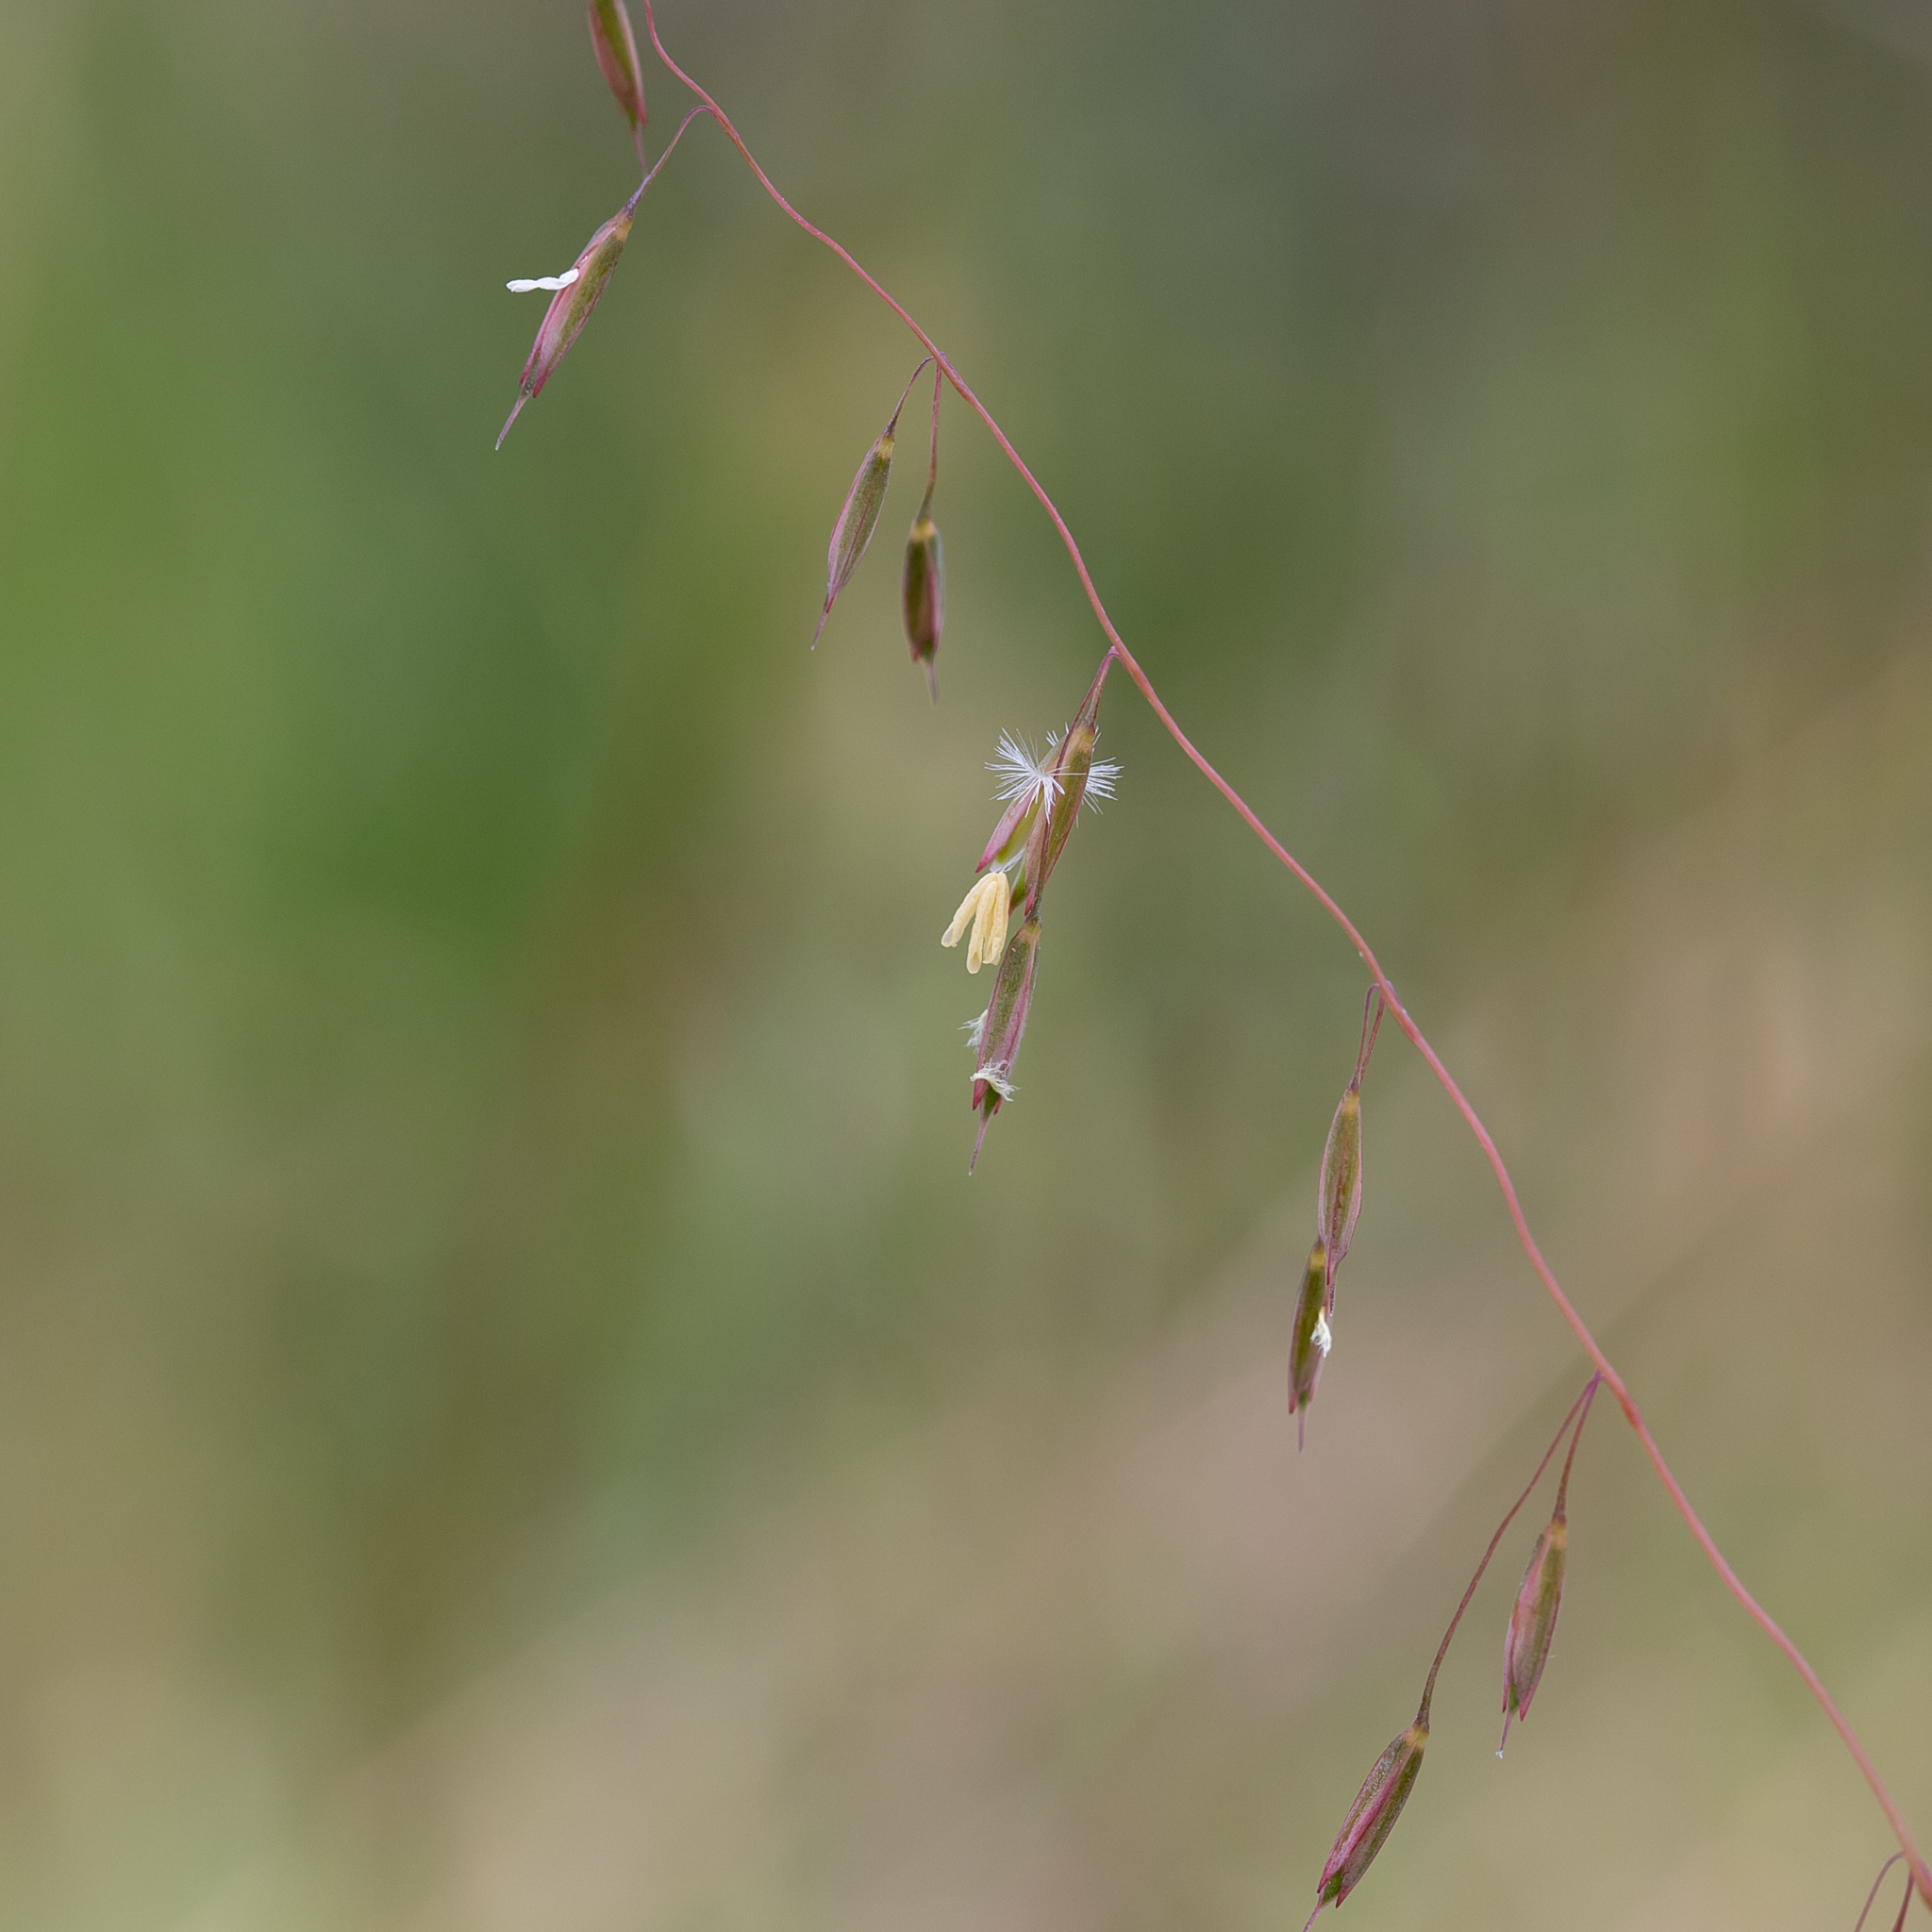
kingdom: Plantae
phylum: Tracheophyta
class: Liliopsida
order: Poales
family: Poaceae
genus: Ehrharta
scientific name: Ehrharta calycina
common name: Perennial veldtgrass
